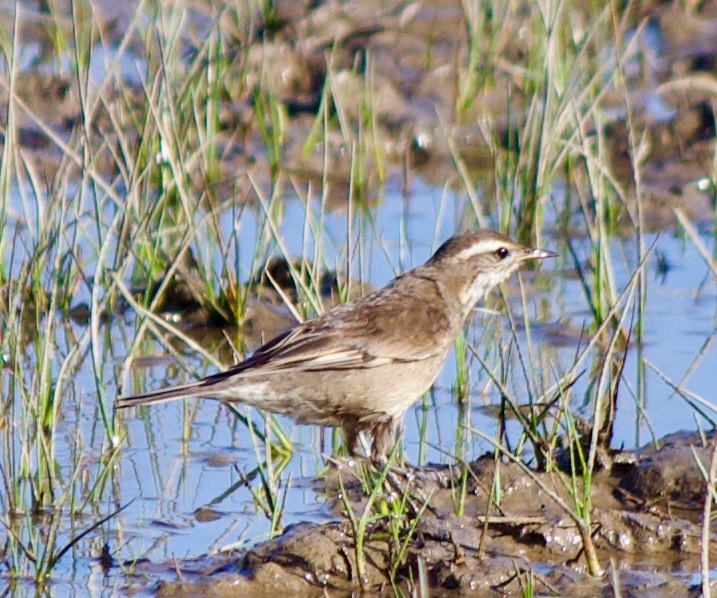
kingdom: Animalia
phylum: Chordata
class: Aves
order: Passeriformes
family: Furnariidae
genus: Cinclodes
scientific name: Cinclodes fuscus
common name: Buff-winged cinclodes
